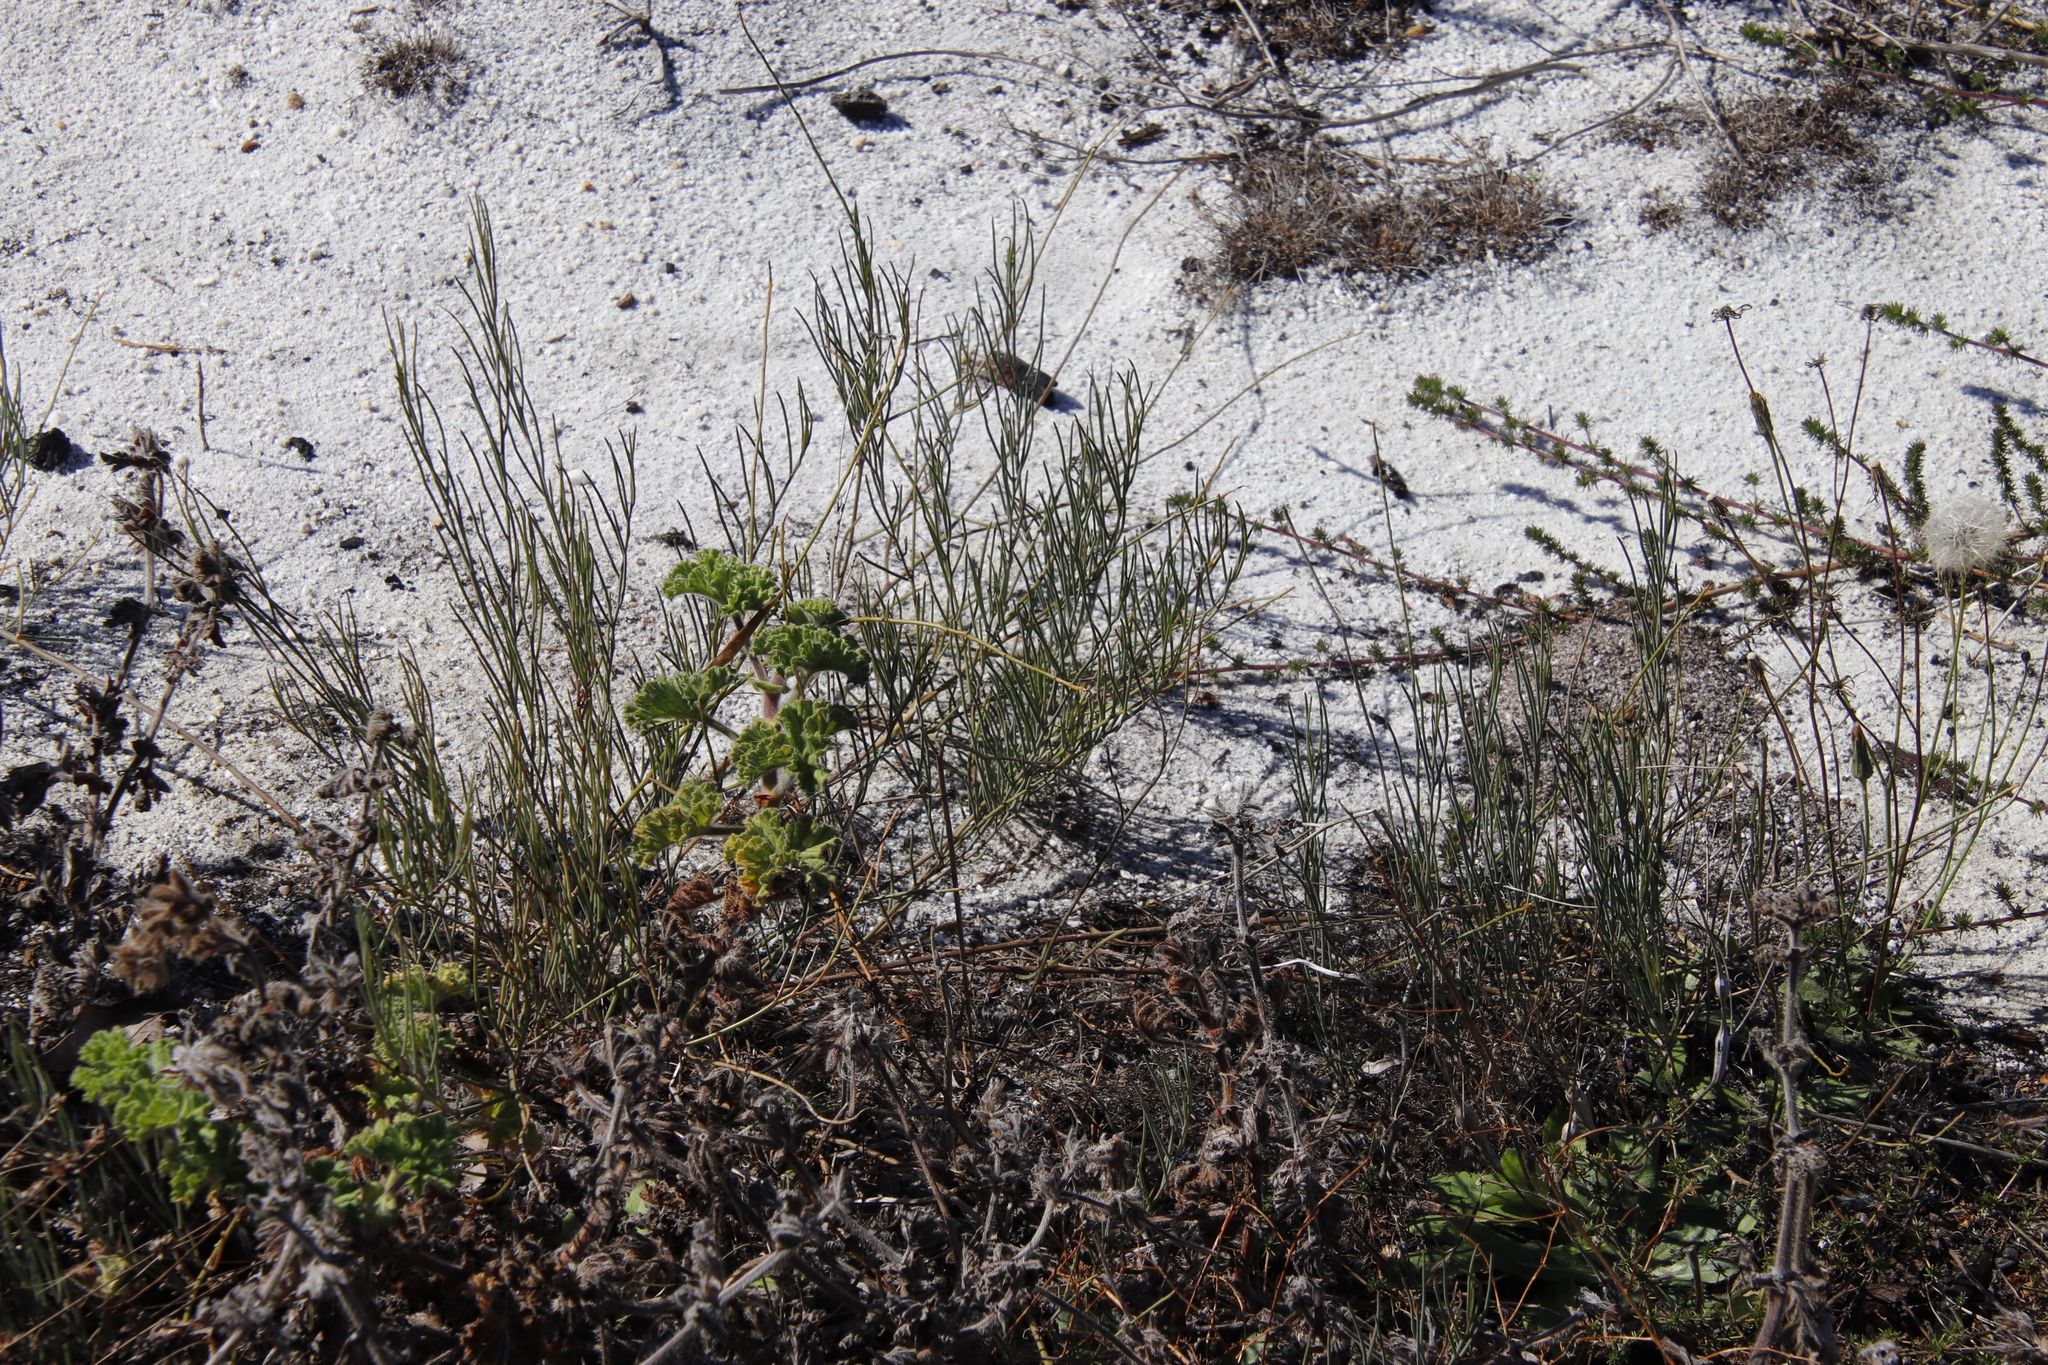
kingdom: Plantae
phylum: Tracheophyta
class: Magnoliopsida
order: Fabales
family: Fabaceae
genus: Lebeckia
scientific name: Lebeckia contaminata
